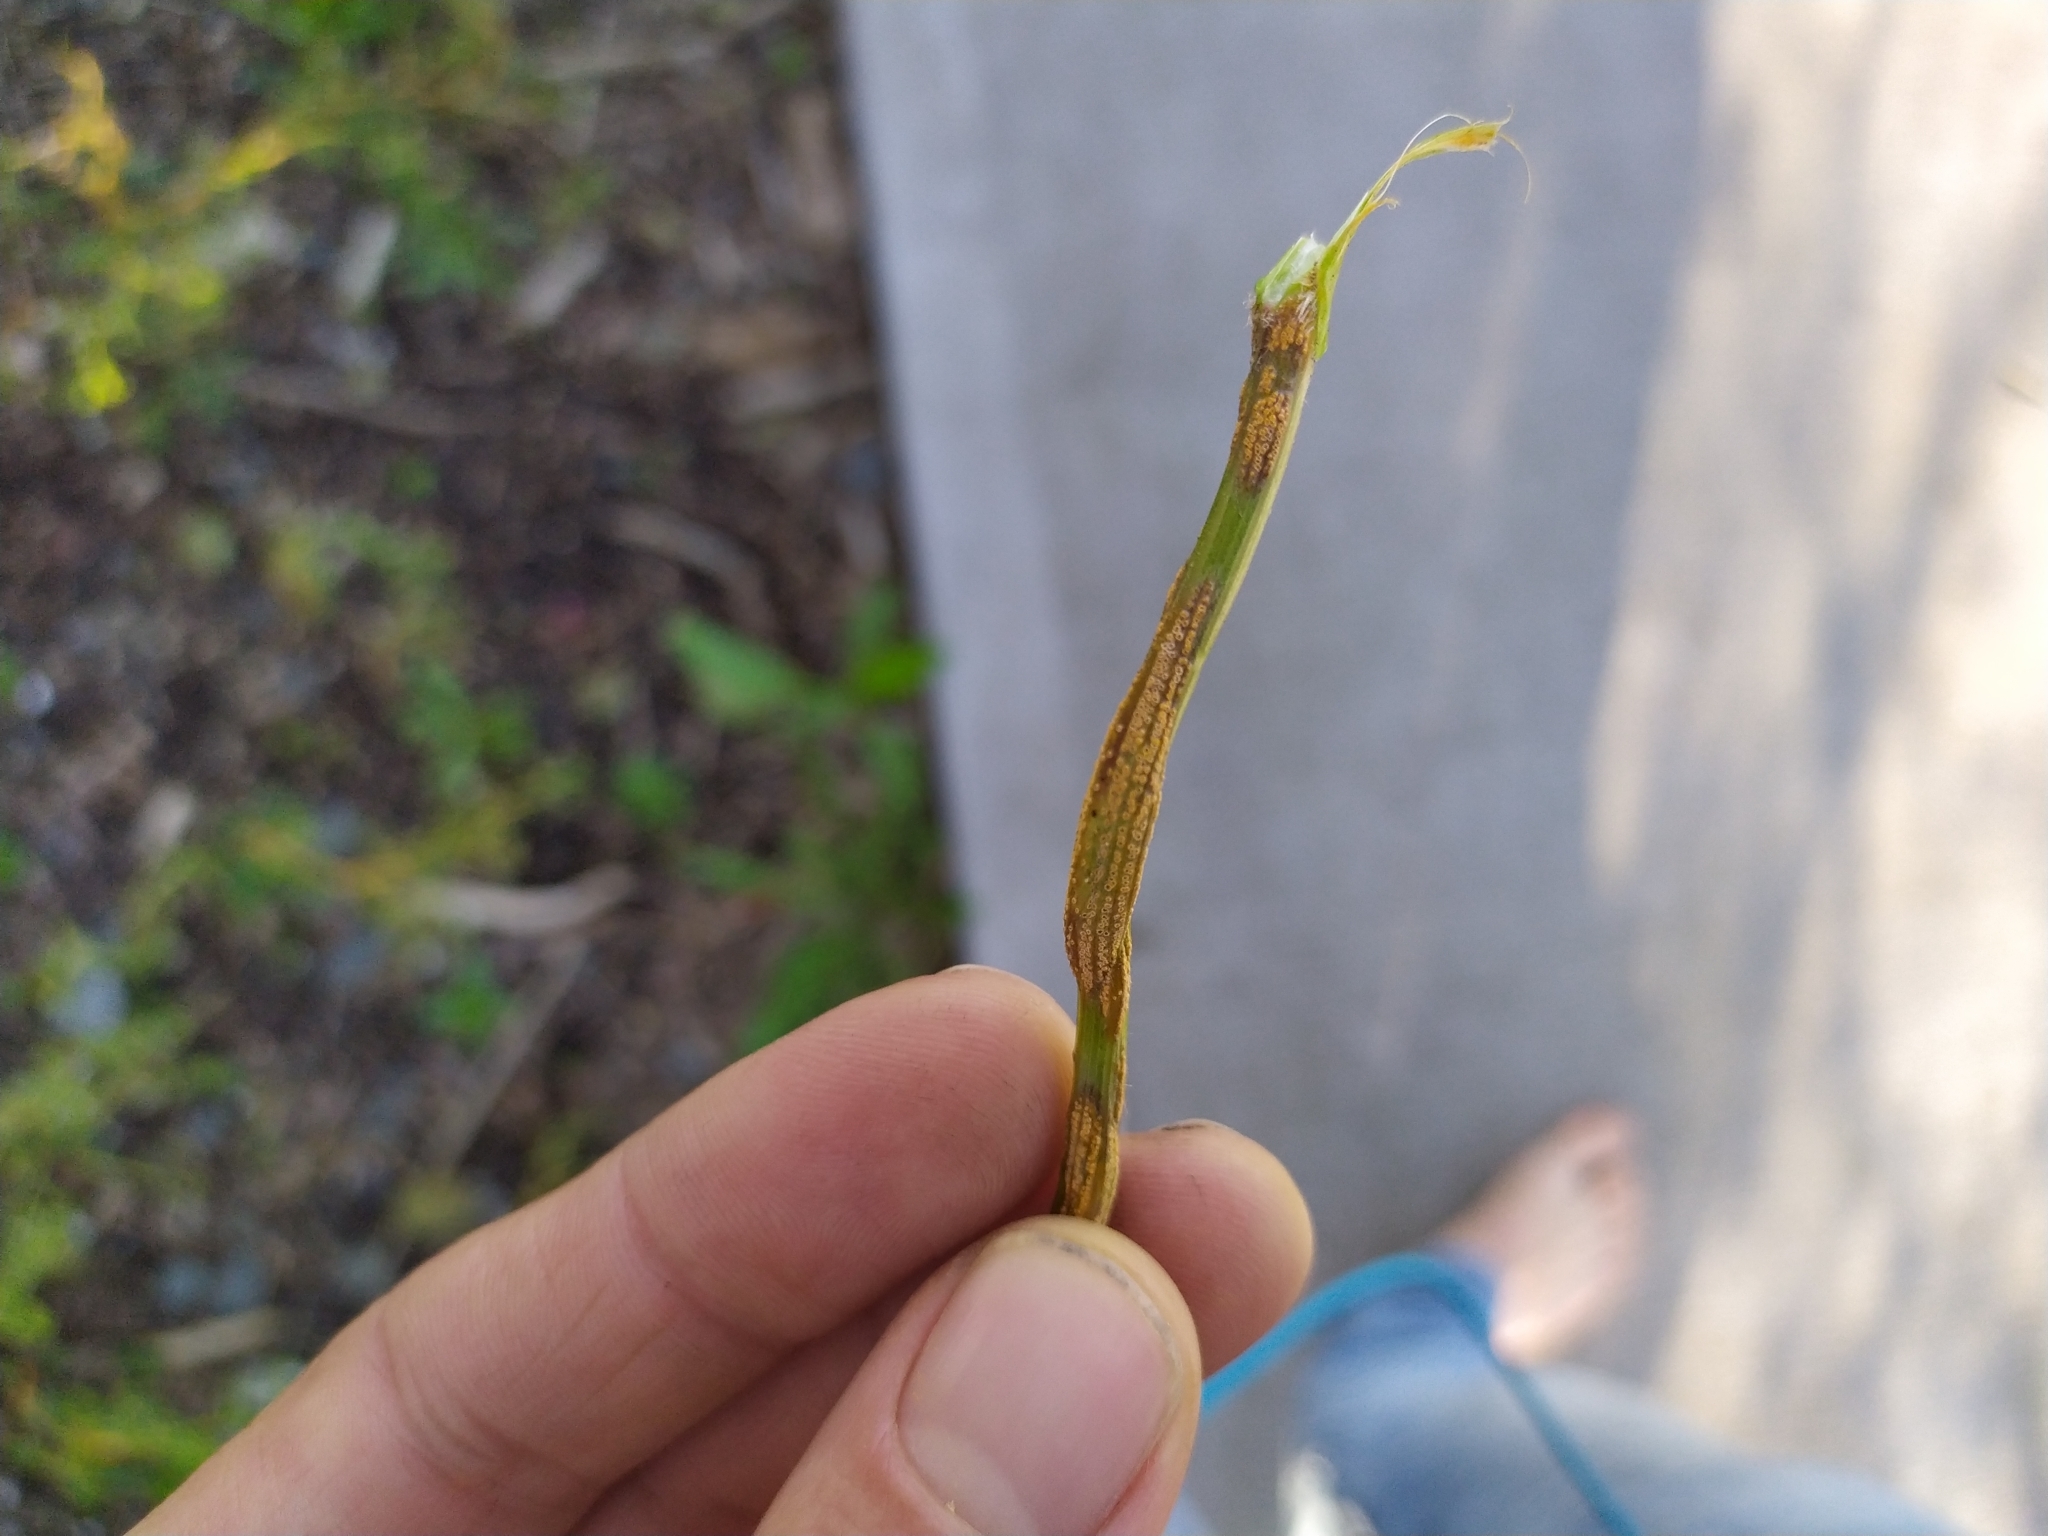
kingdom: Fungi
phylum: Basidiomycota
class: Pucciniomycetes
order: Pucciniales
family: Pucciniaceae
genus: Puccinia
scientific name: Puccinia lagenophorae
